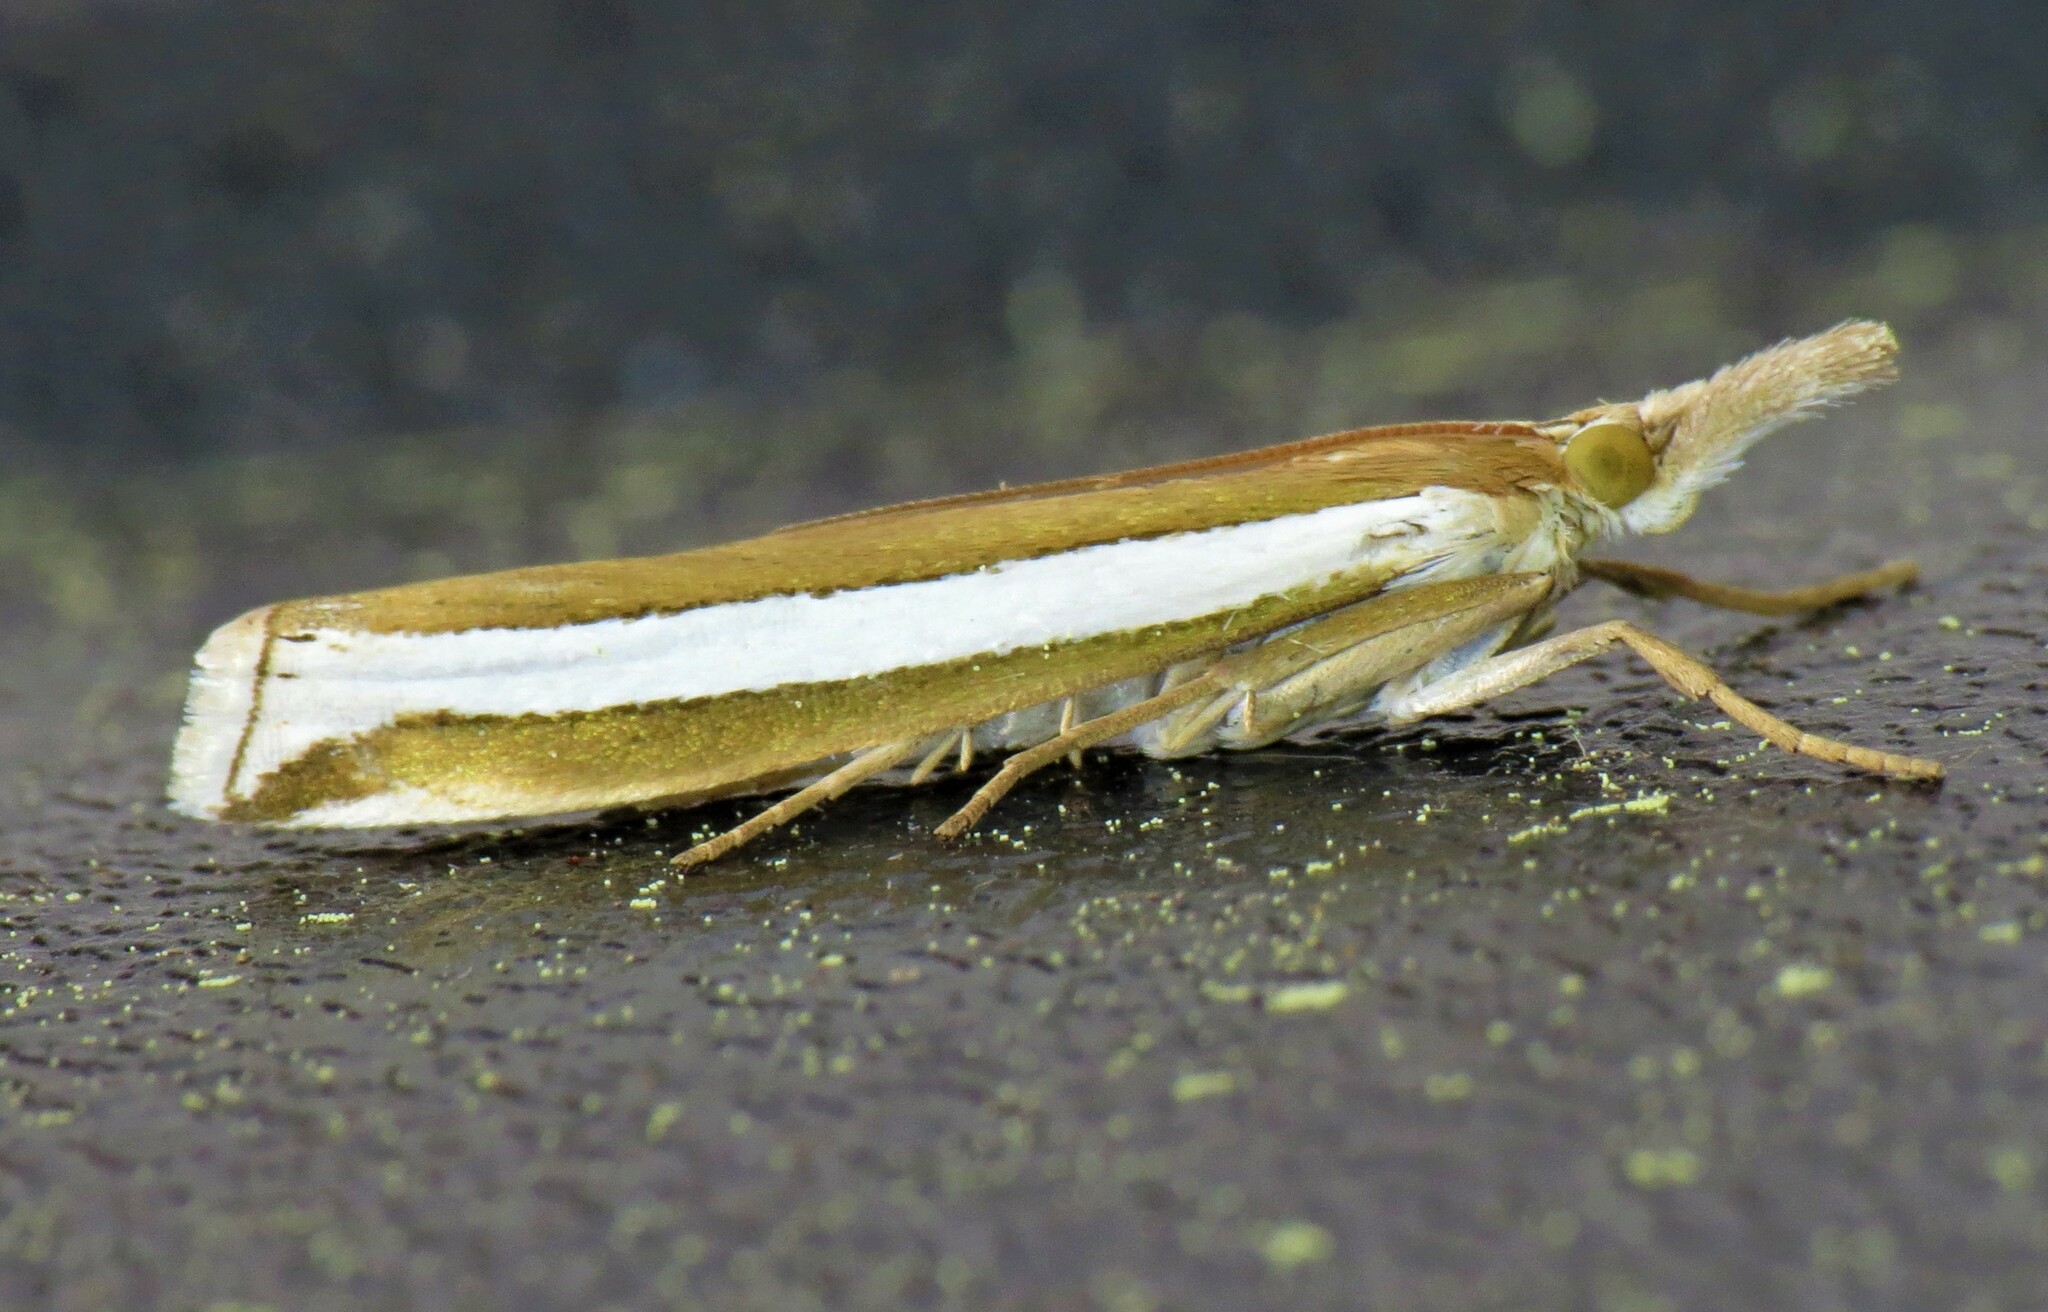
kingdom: Animalia
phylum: Arthropoda
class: Insecta
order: Lepidoptera
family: Crambidae
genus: Crambus
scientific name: Crambus unistriatellus
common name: Wide-stripe grass-veneer moth
